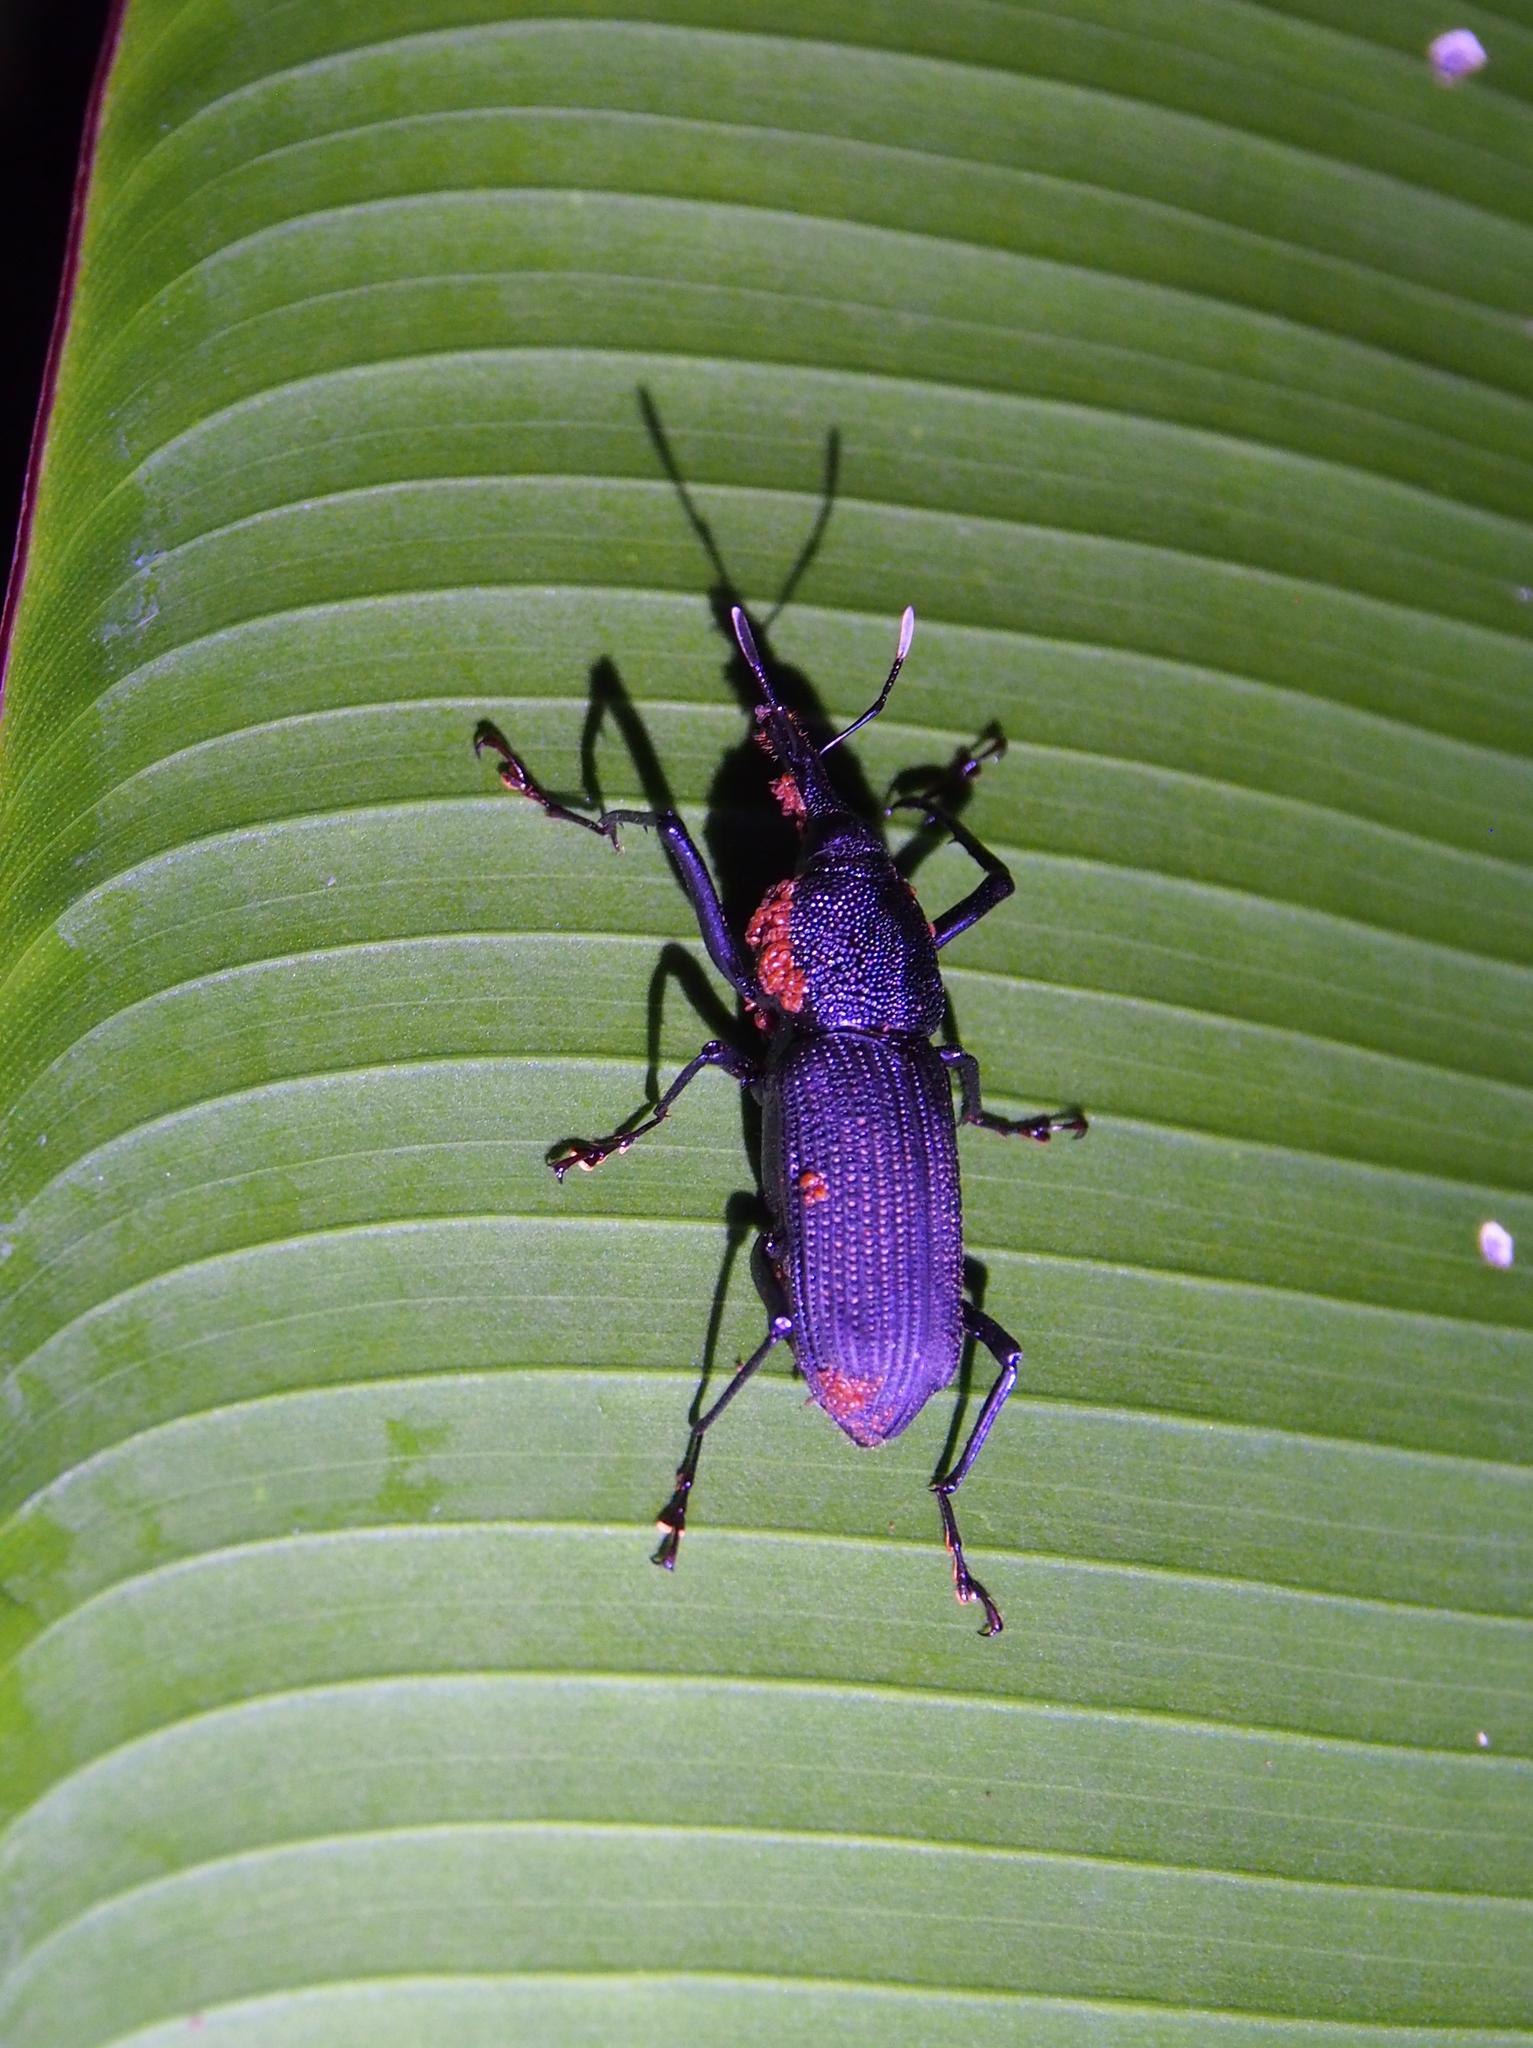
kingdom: Animalia
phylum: Arthropoda
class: Insecta
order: Coleoptera
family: Dryophthoridae
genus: Rhinostomus
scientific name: Rhinostomus barbirostris
